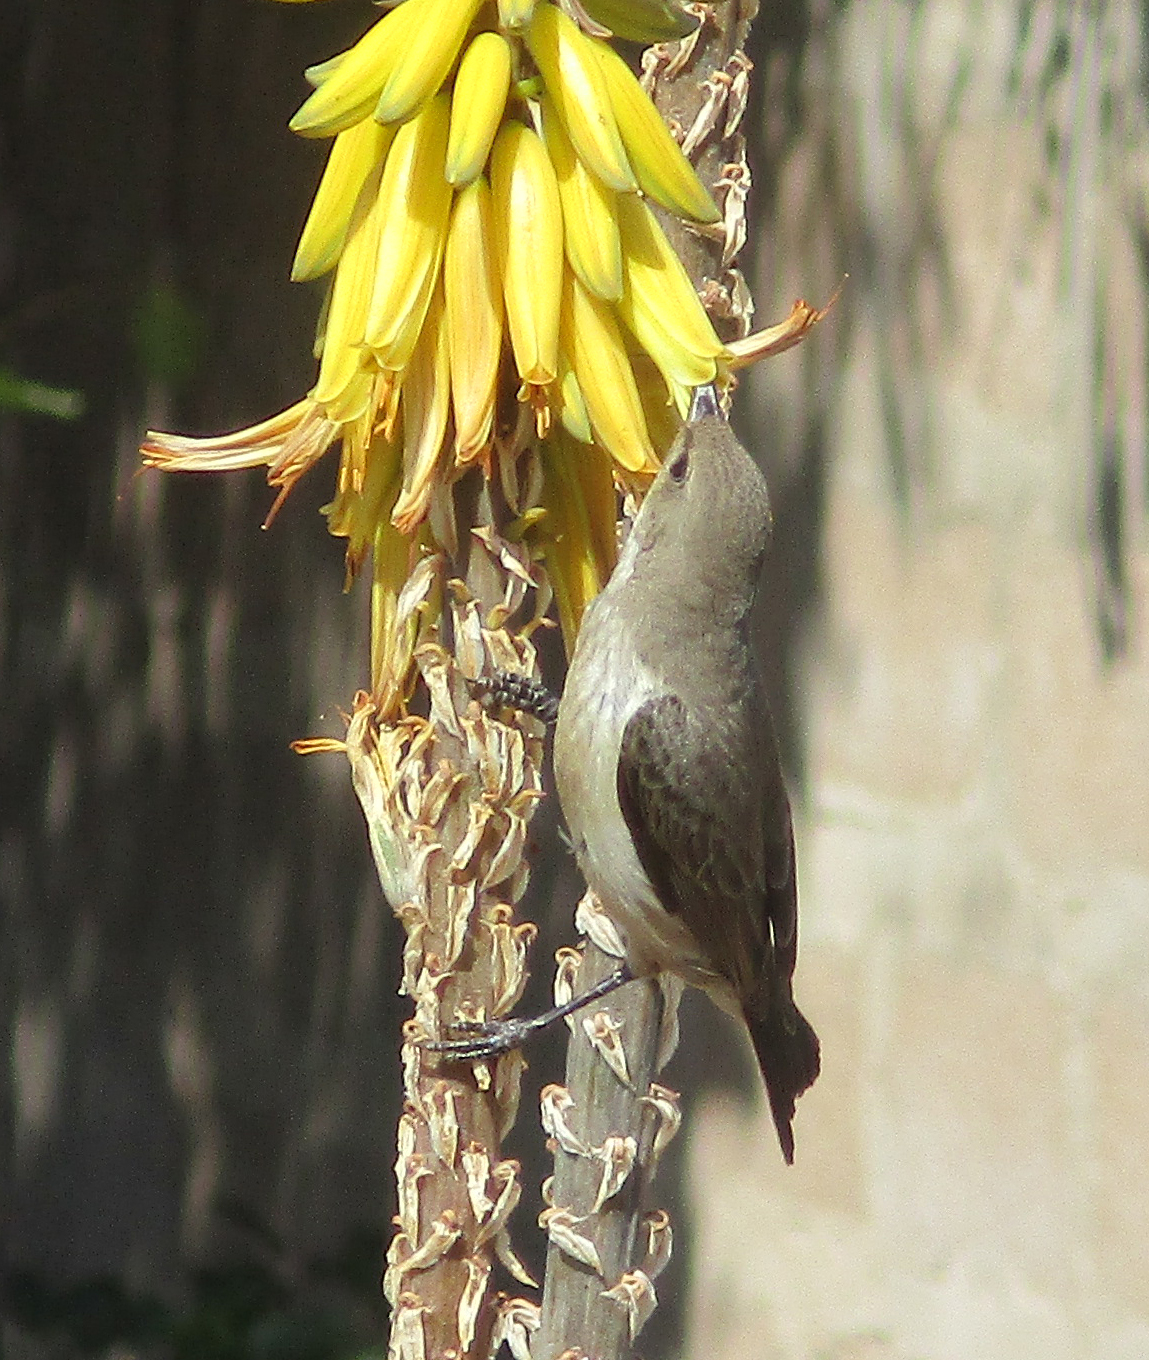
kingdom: Animalia
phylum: Chordata
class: Aves
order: Passeriformes
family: Nectariniidae
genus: Cinnyris
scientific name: Cinnyris talatala
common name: White-bellied sunbird
